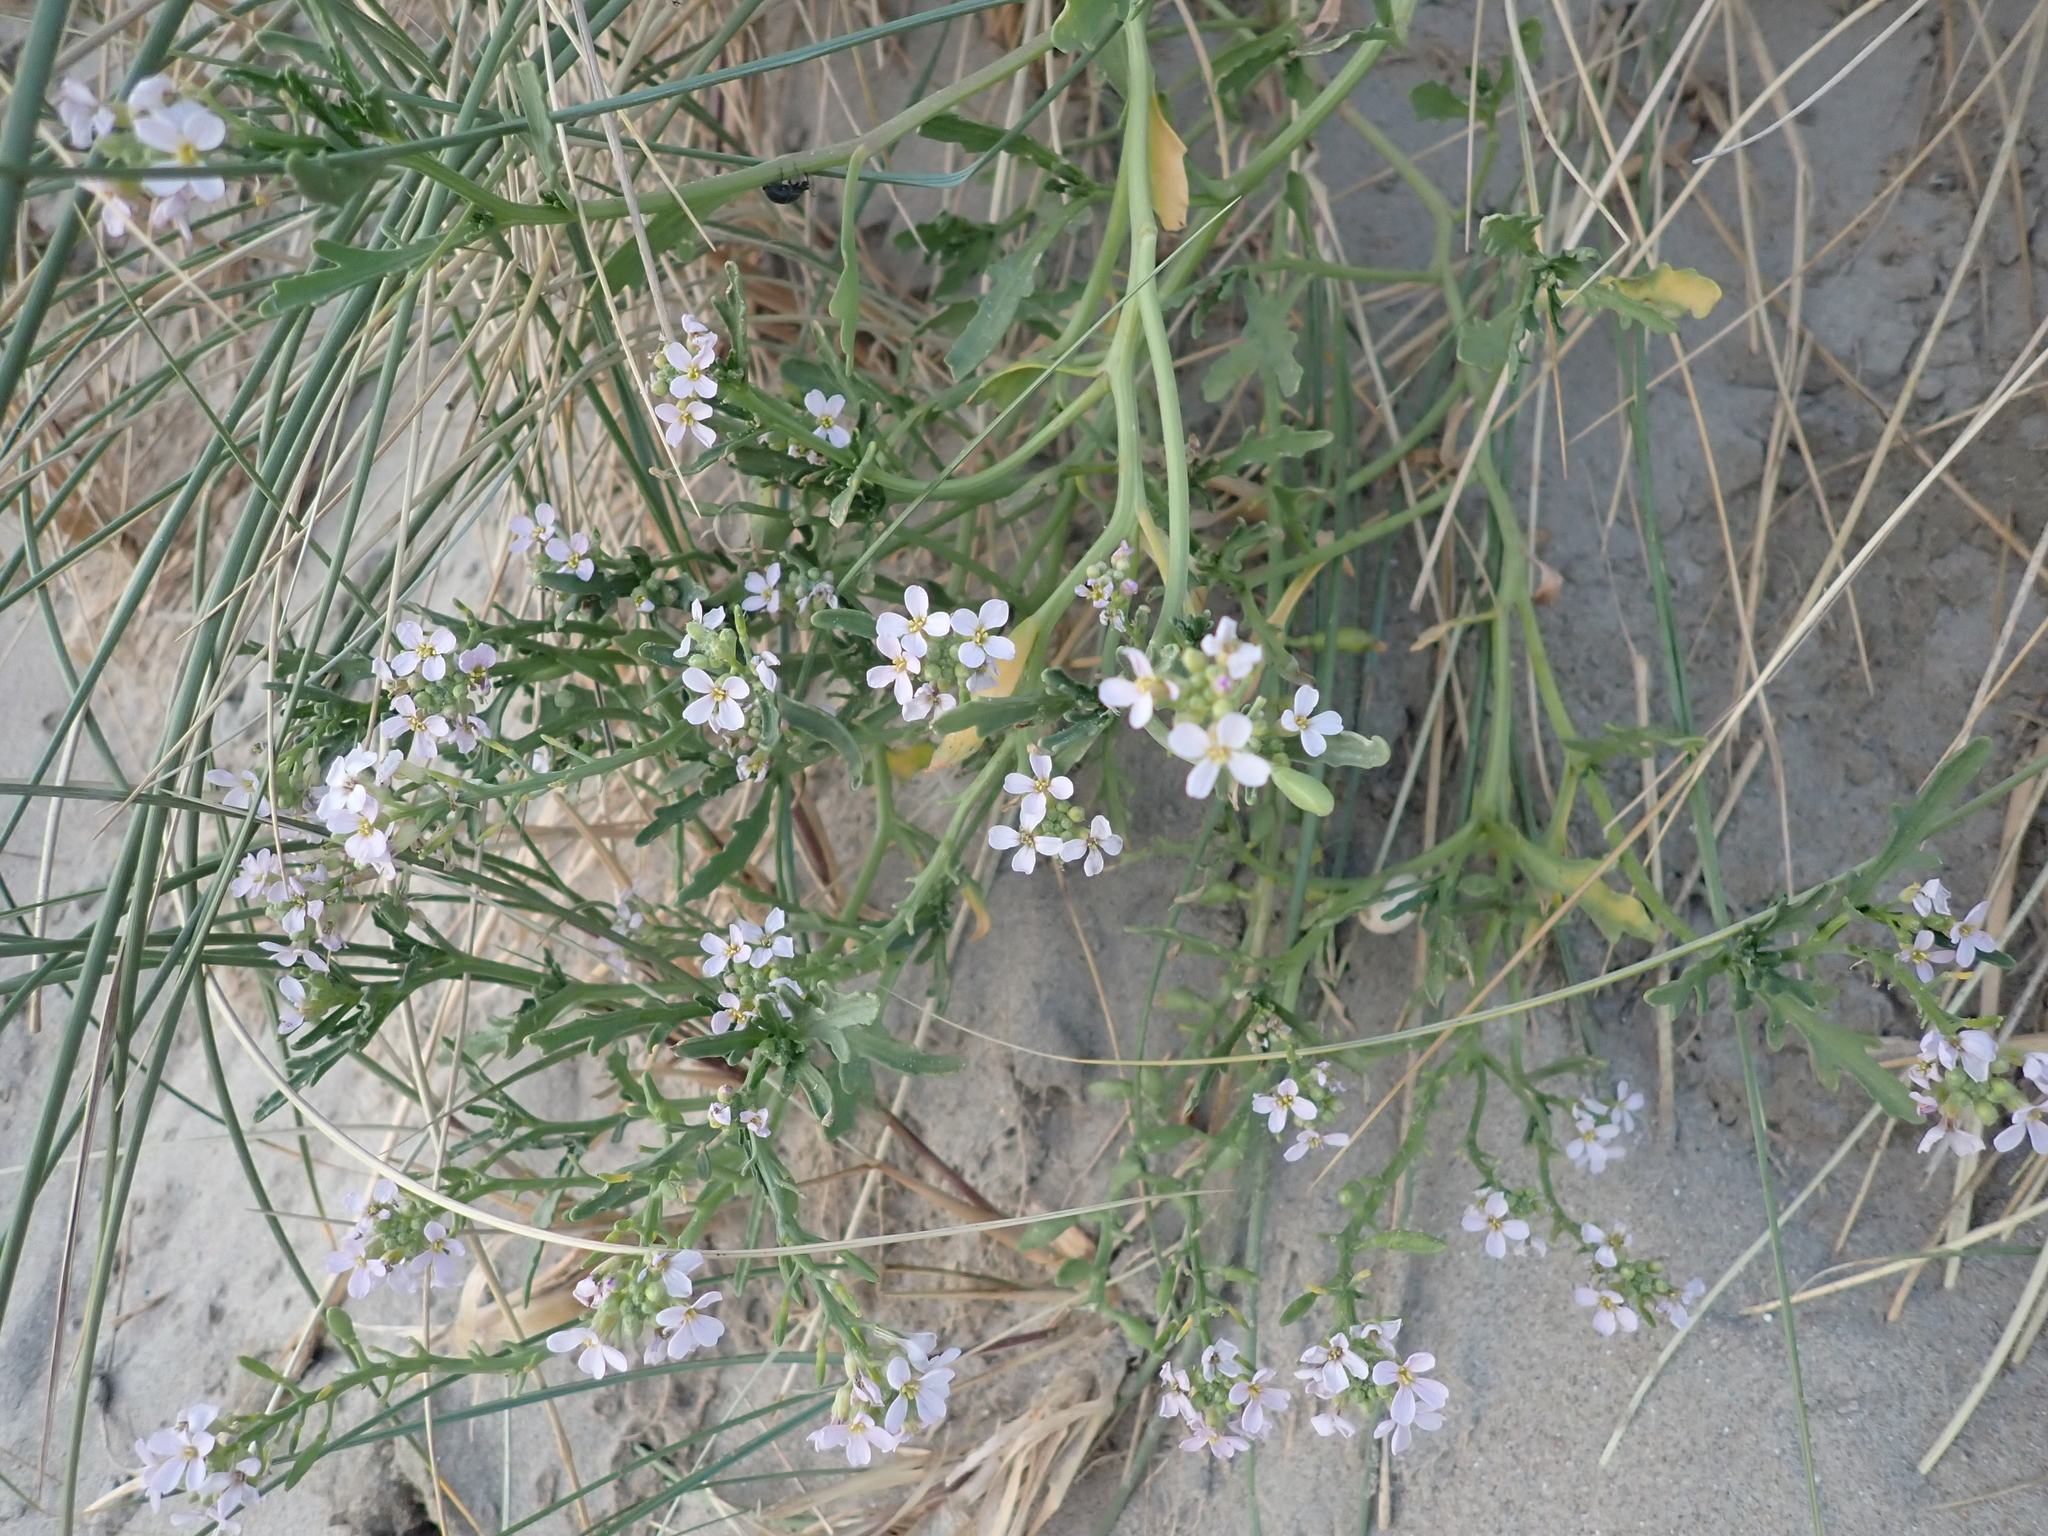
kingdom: Plantae
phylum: Tracheophyta
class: Magnoliopsida
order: Brassicales
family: Brassicaceae
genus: Cakile
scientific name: Cakile maritima
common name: Sea rocket
